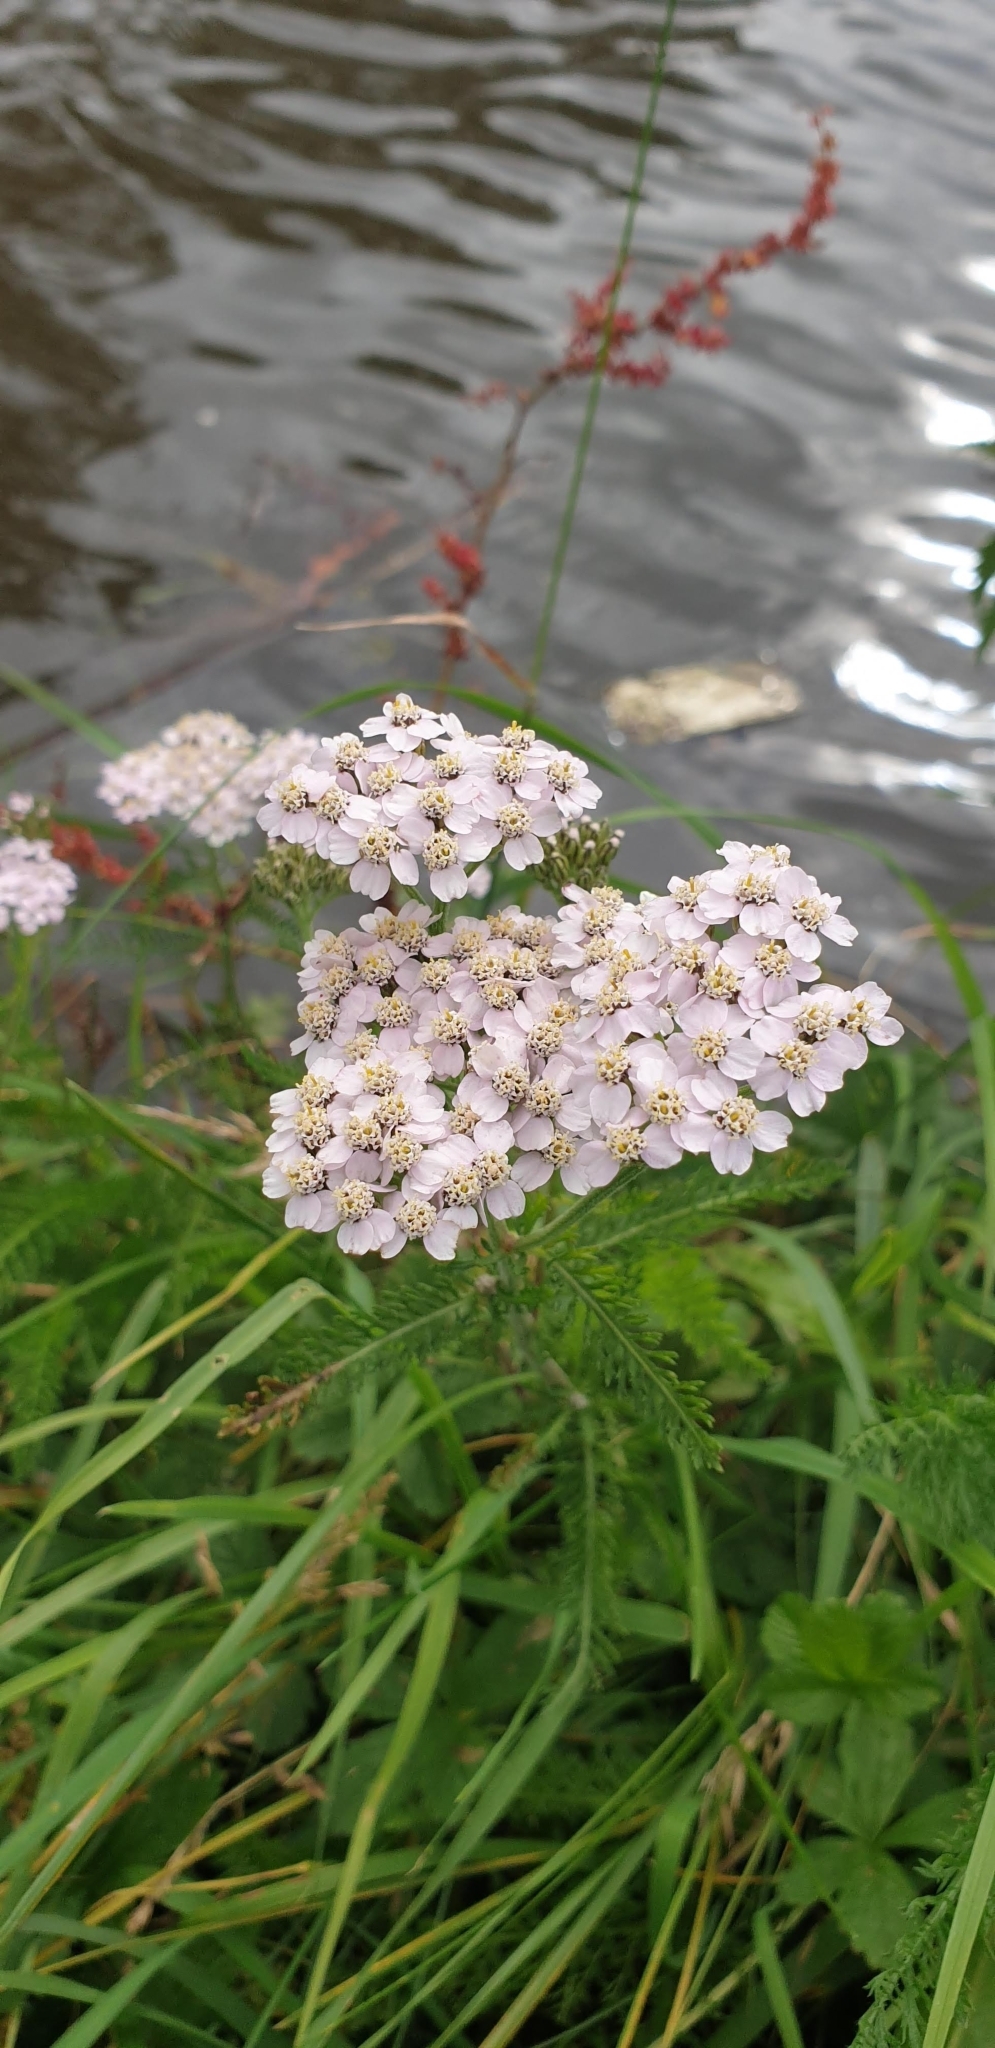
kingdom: Plantae
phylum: Tracheophyta
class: Magnoliopsida
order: Asterales
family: Asteraceae
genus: Achillea
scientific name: Achillea millefolium
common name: Yarrow
